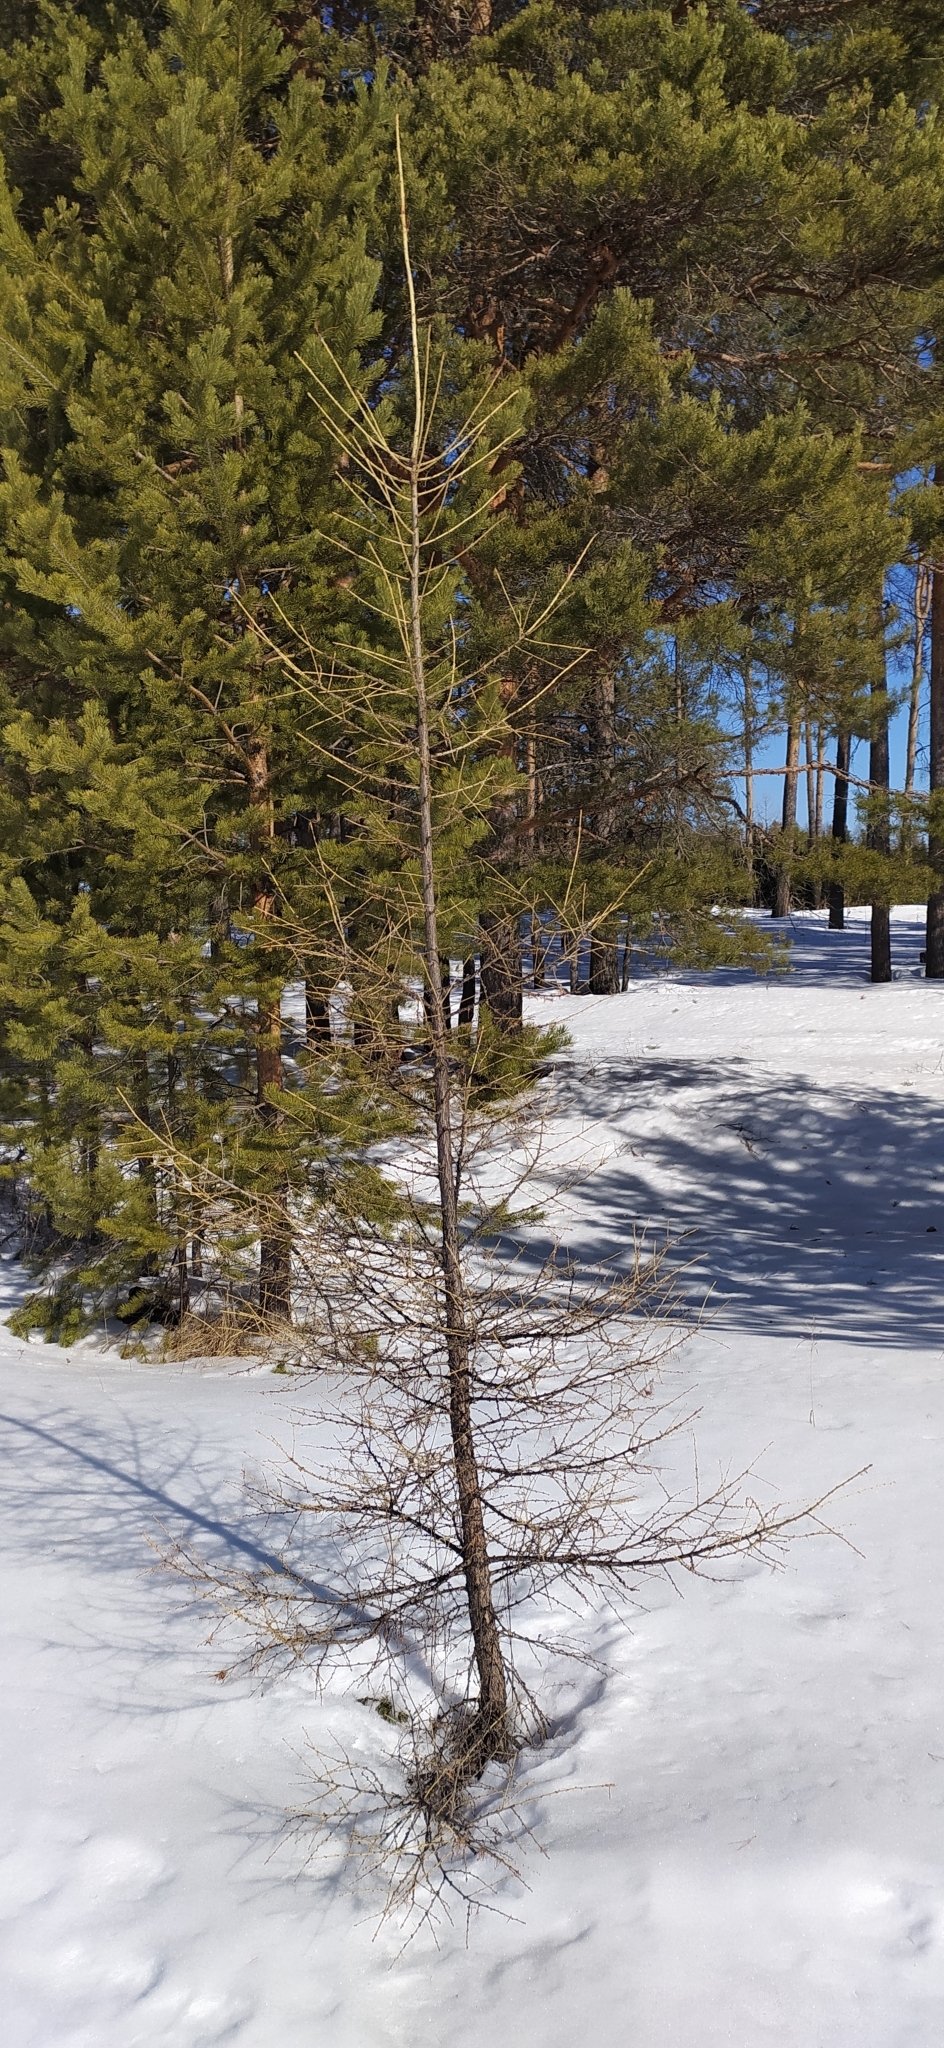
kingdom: Plantae
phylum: Tracheophyta
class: Pinopsida
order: Pinales
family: Pinaceae
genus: Larix
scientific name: Larix sibirica
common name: Siberian larch
